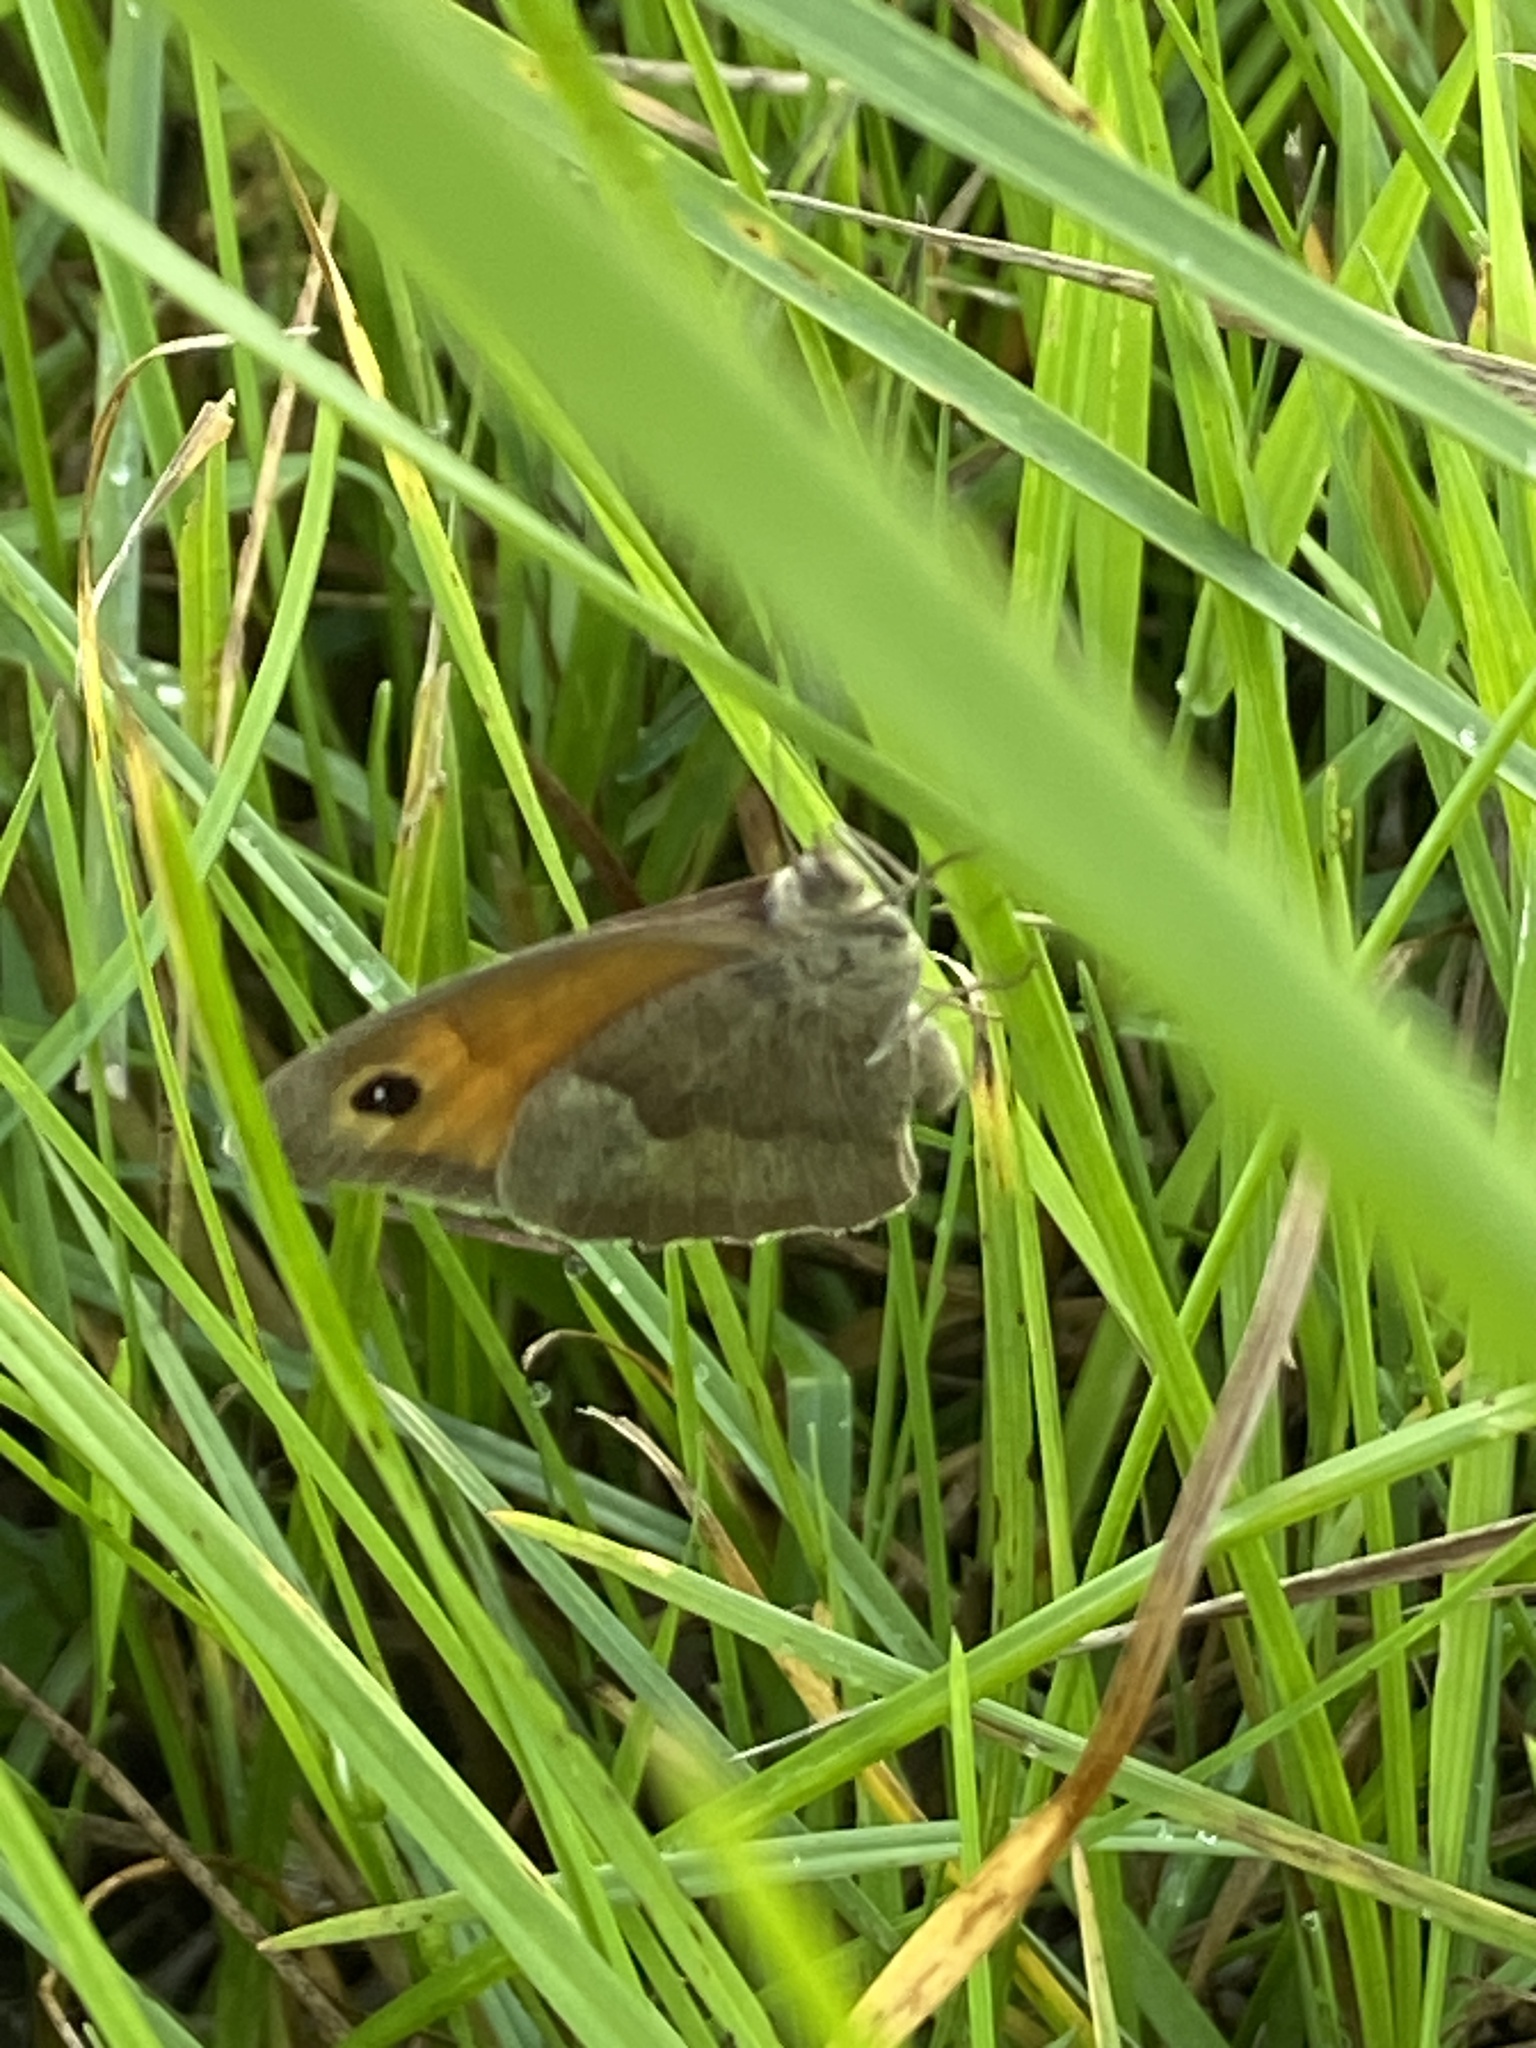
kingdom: Animalia
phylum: Arthropoda
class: Insecta
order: Lepidoptera
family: Nymphalidae
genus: Maniola
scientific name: Maniola jurtina
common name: Meadow brown
